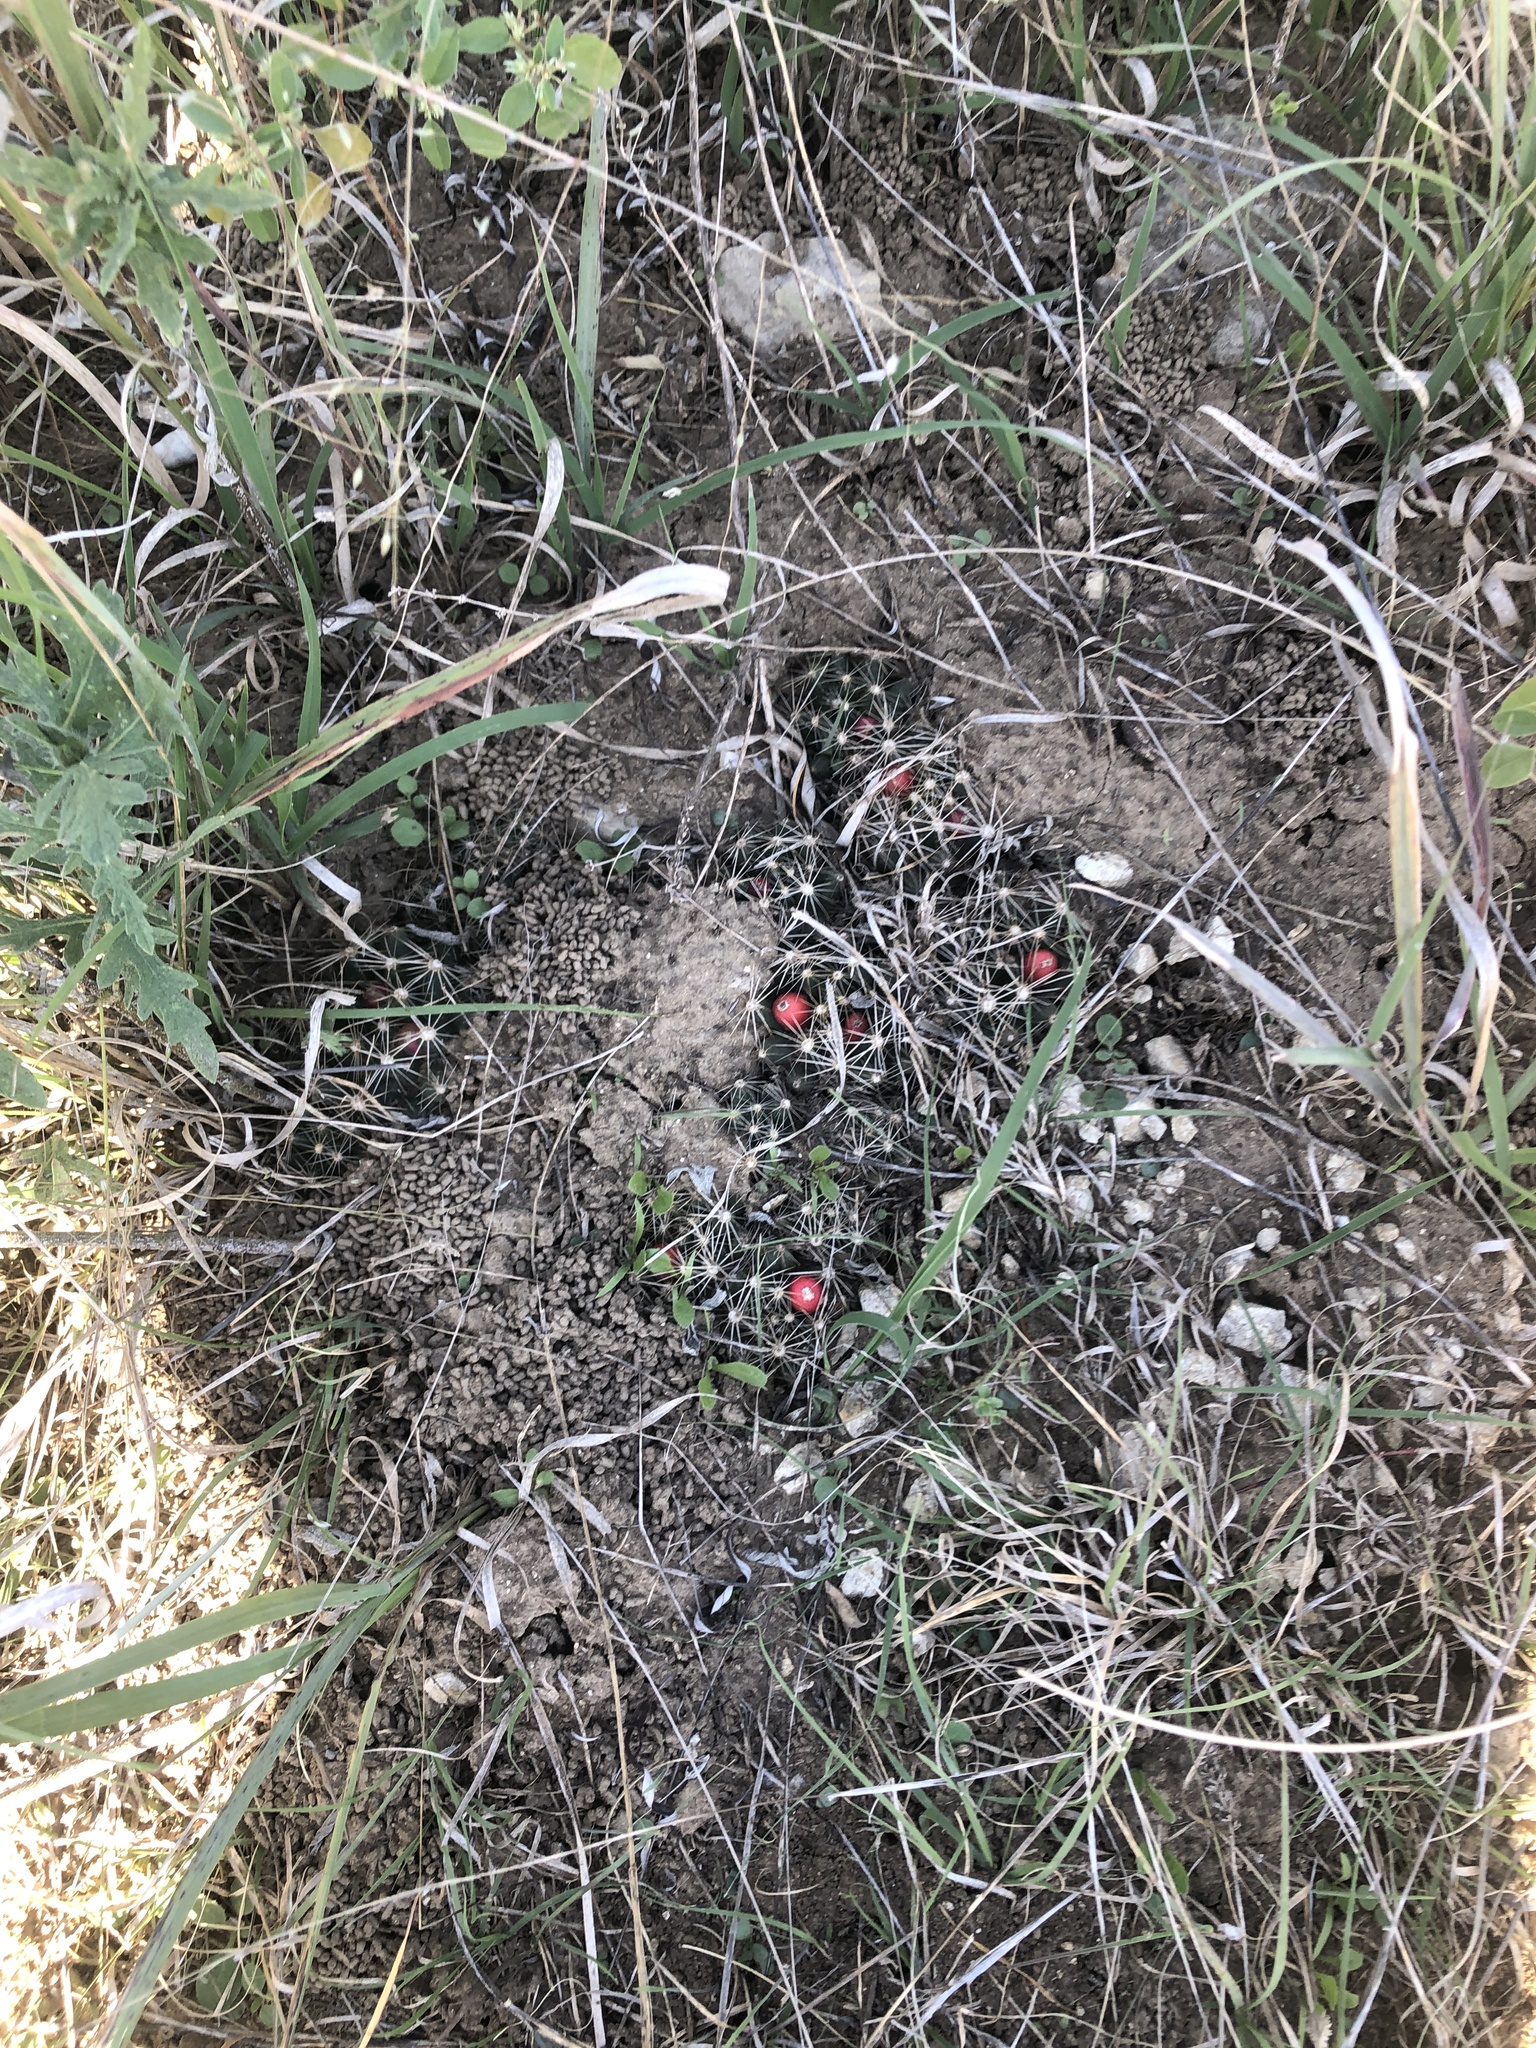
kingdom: Plantae
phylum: Tracheophyta
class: Magnoliopsida
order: Caryophyllales
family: Cactaceae
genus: Pelecyphora
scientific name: Pelecyphora missouriensis
